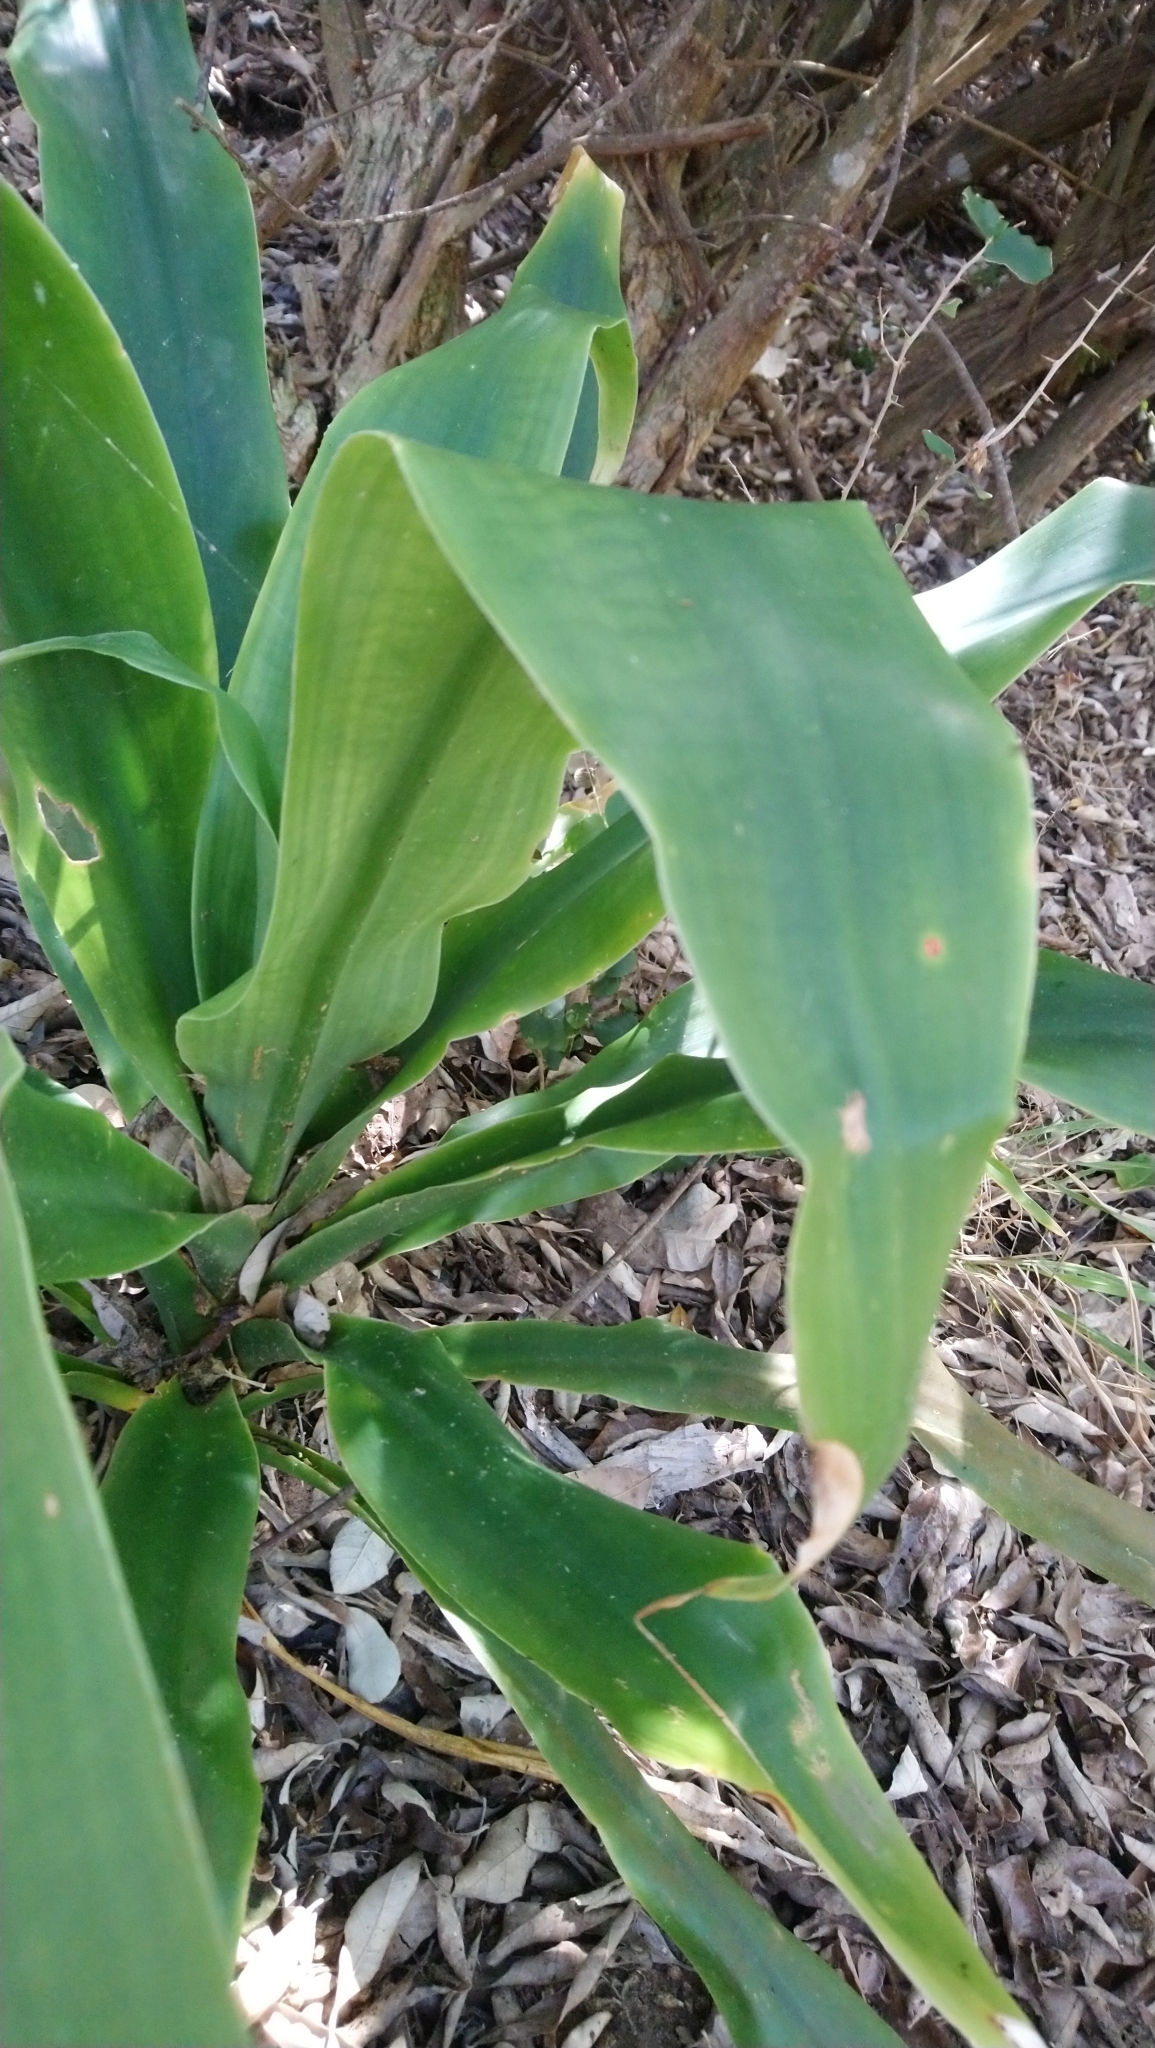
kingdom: Plantae
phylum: Tracheophyta
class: Liliopsida
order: Asparagales
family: Asparagaceae
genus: Dracaena
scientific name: Dracaena aletriformis
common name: Large-leaved dragon tree
